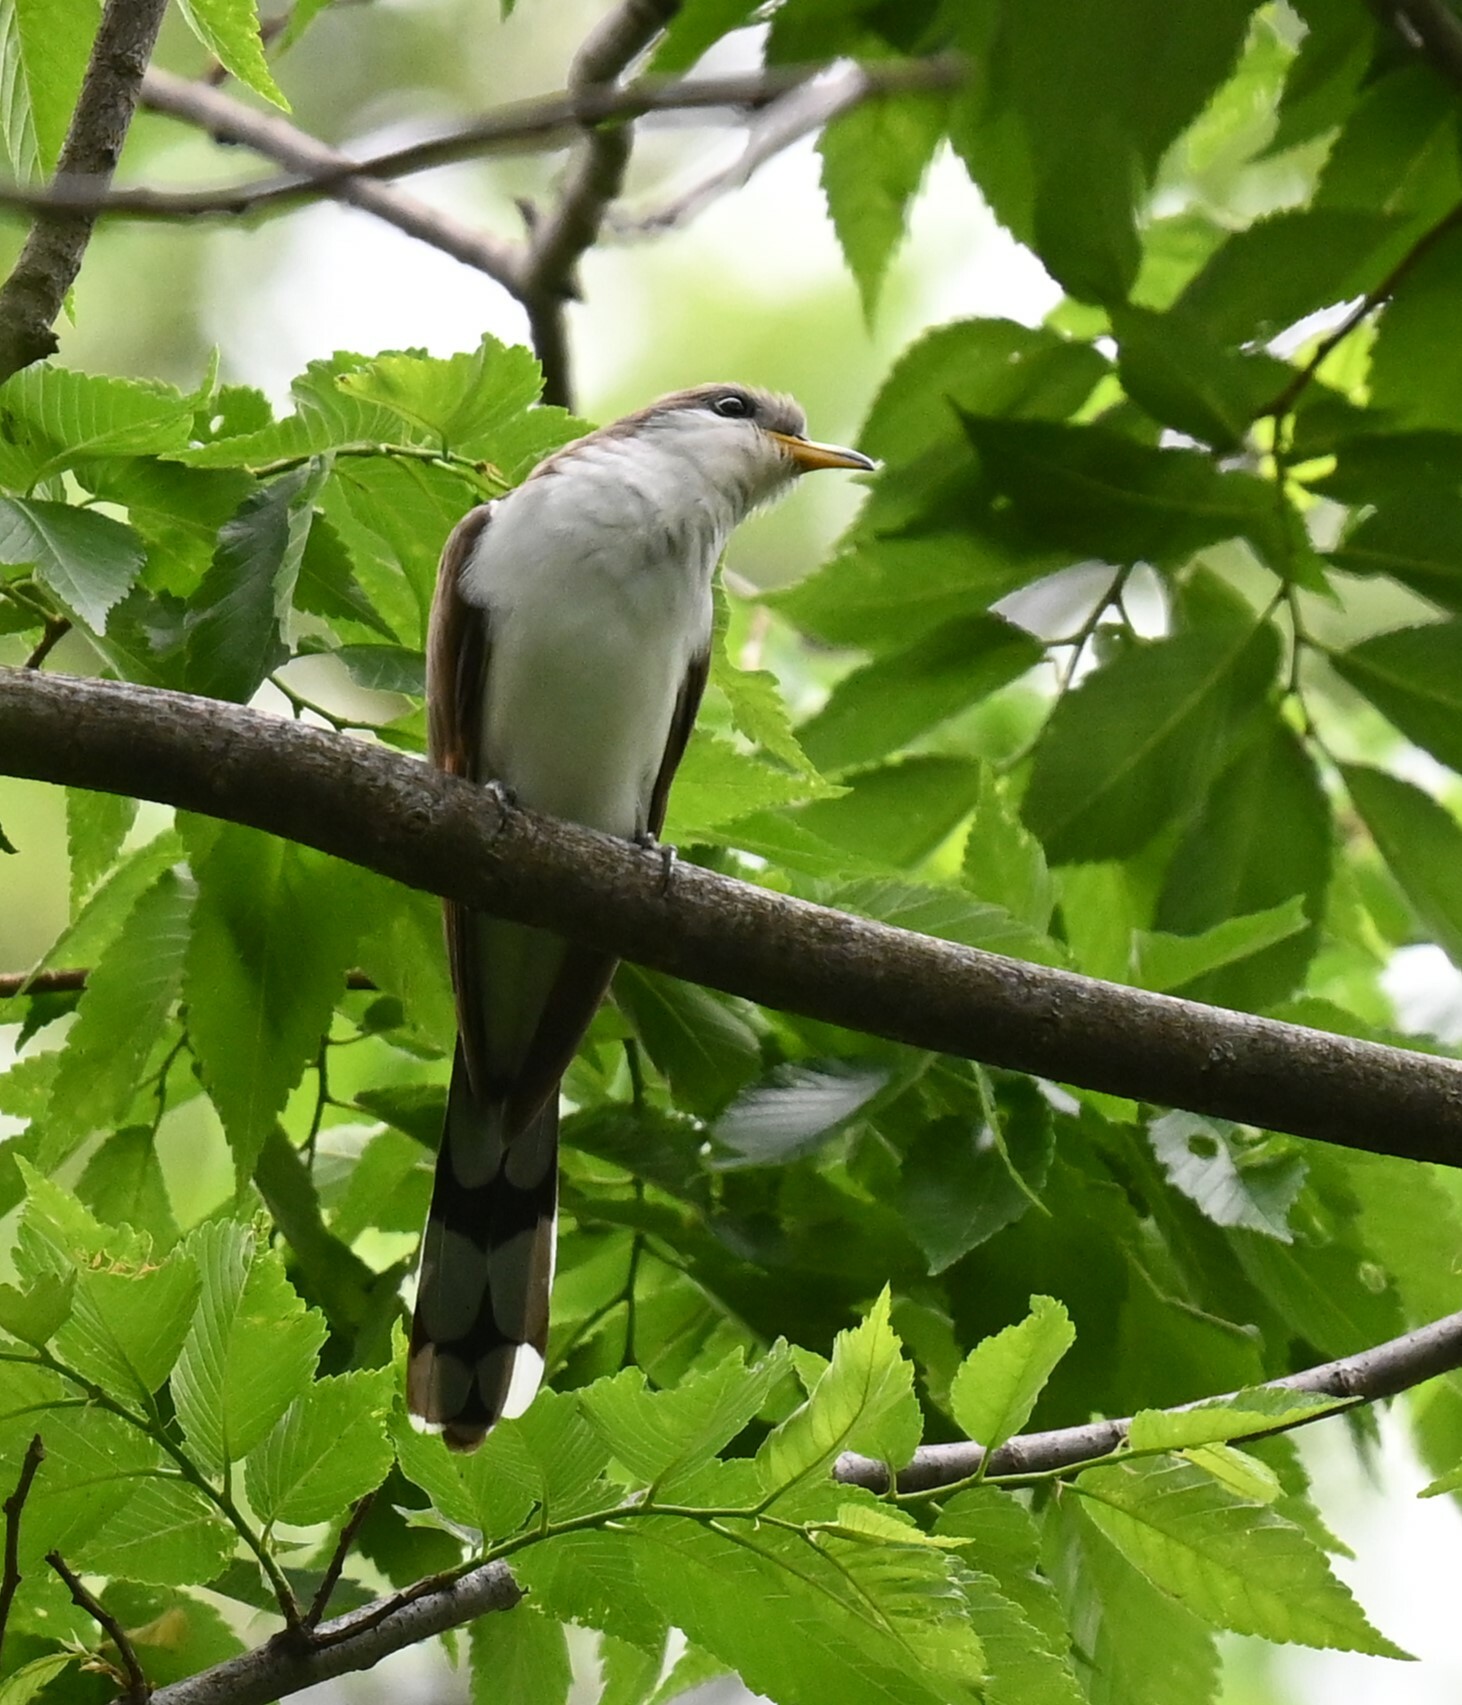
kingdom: Animalia
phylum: Chordata
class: Aves
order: Cuculiformes
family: Cuculidae
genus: Coccyzus
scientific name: Coccyzus americanus
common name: Yellow-billed cuckoo
